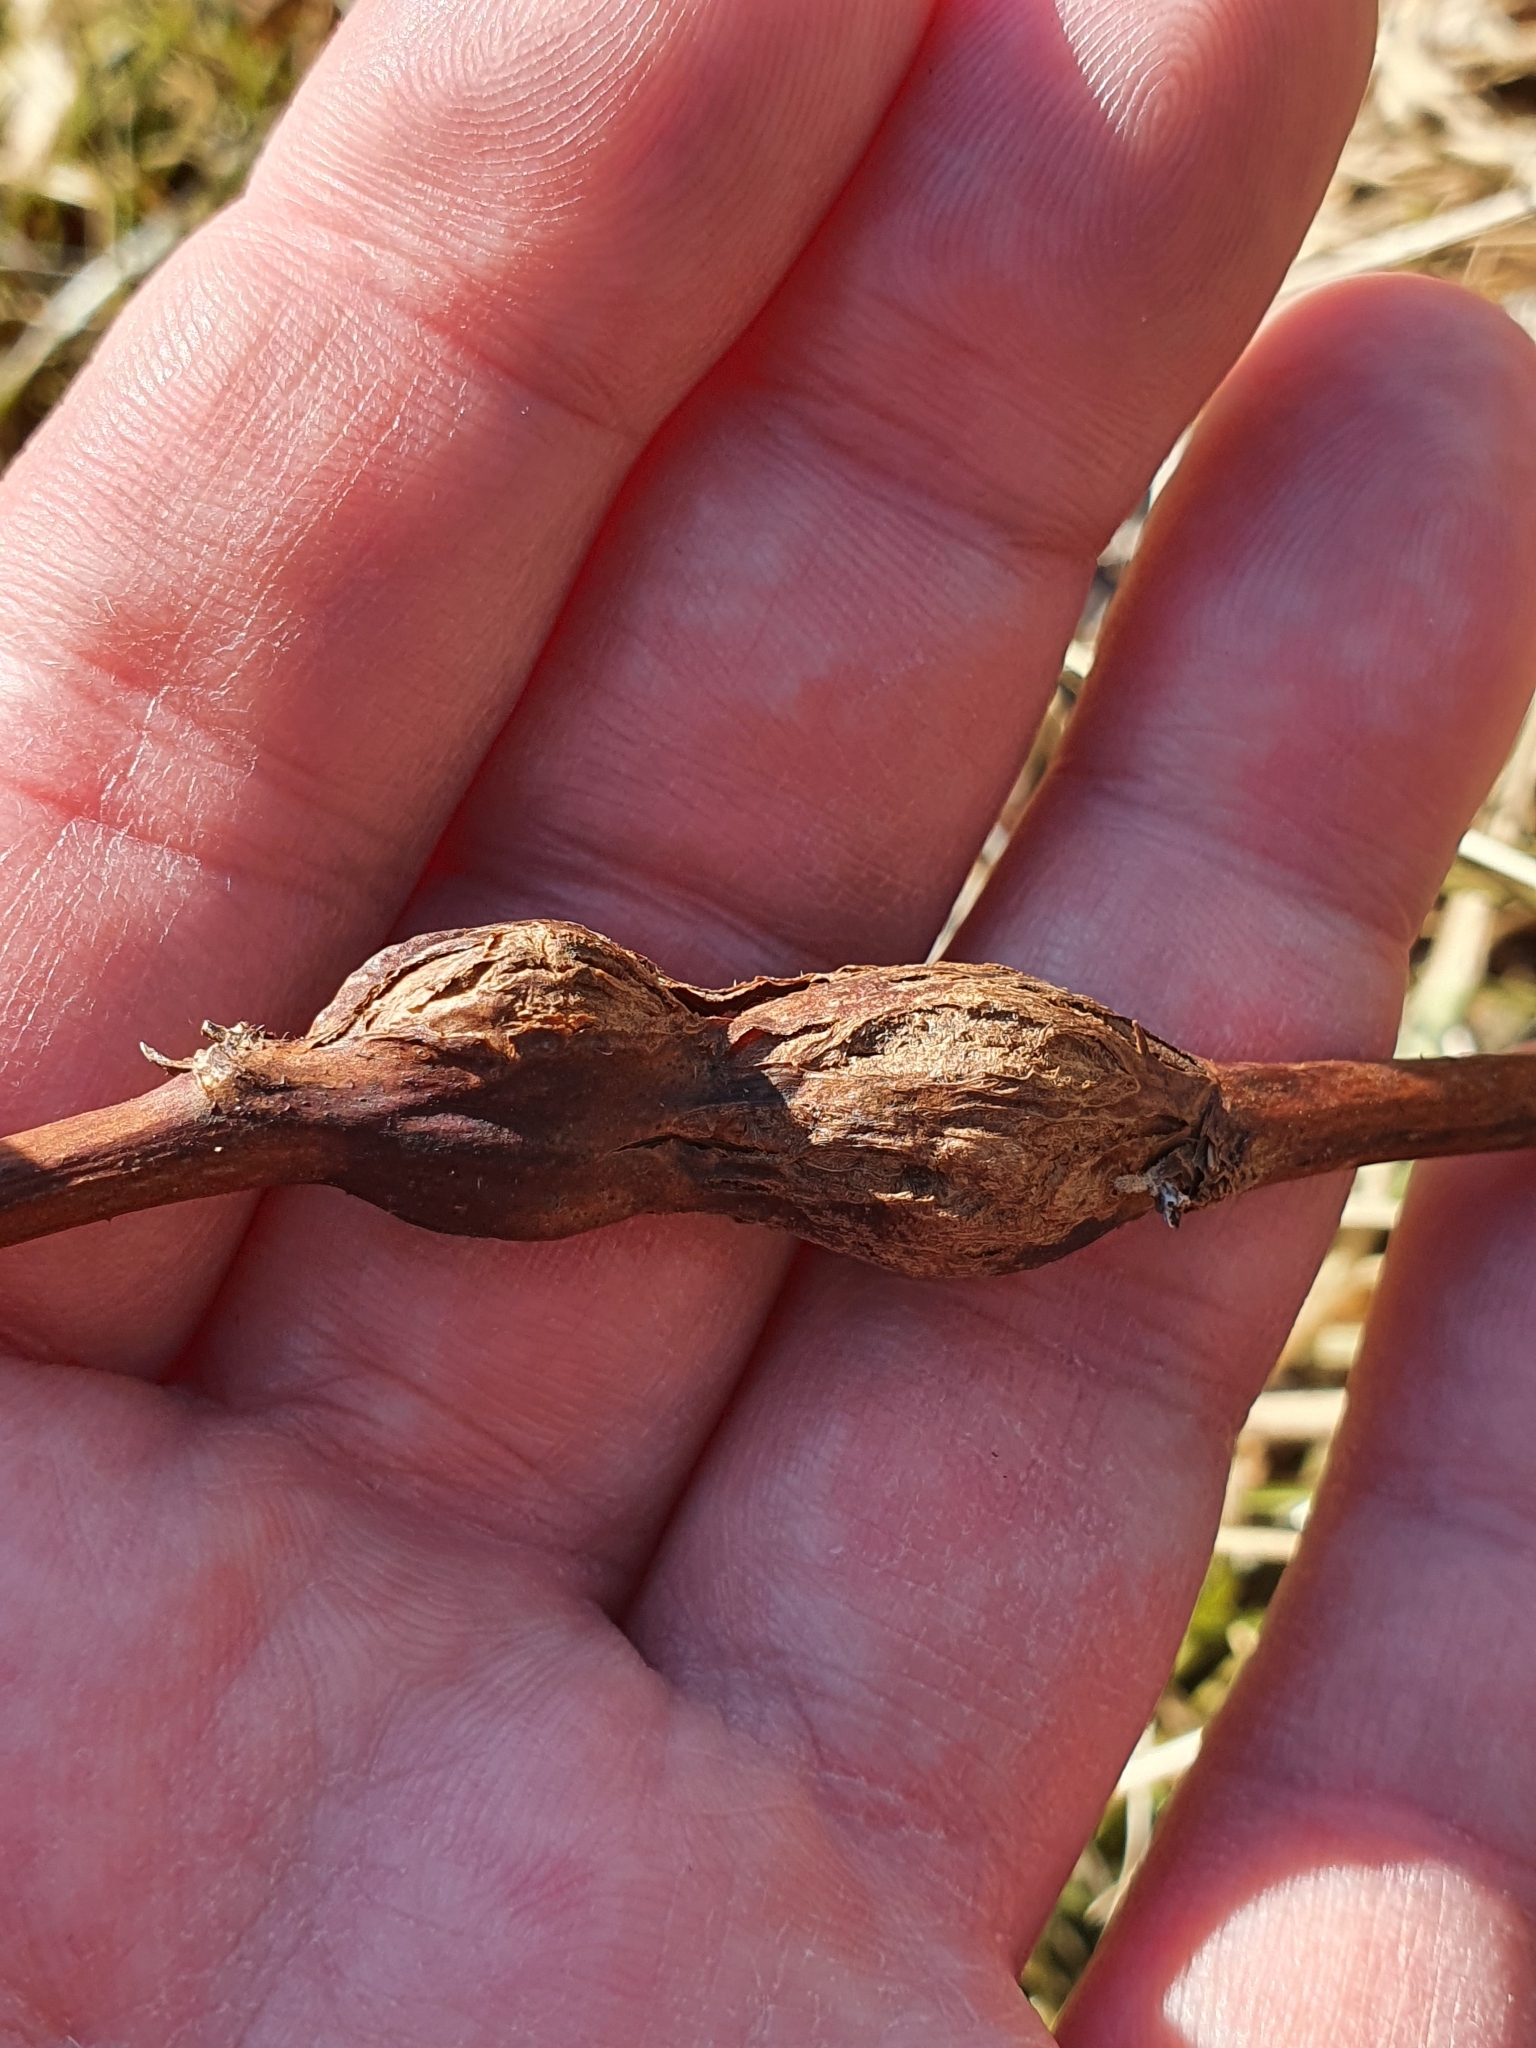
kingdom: Animalia
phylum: Arthropoda
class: Insecta
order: Diptera
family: Cecidomyiidae
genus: Lasioptera
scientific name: Lasioptera rubi
